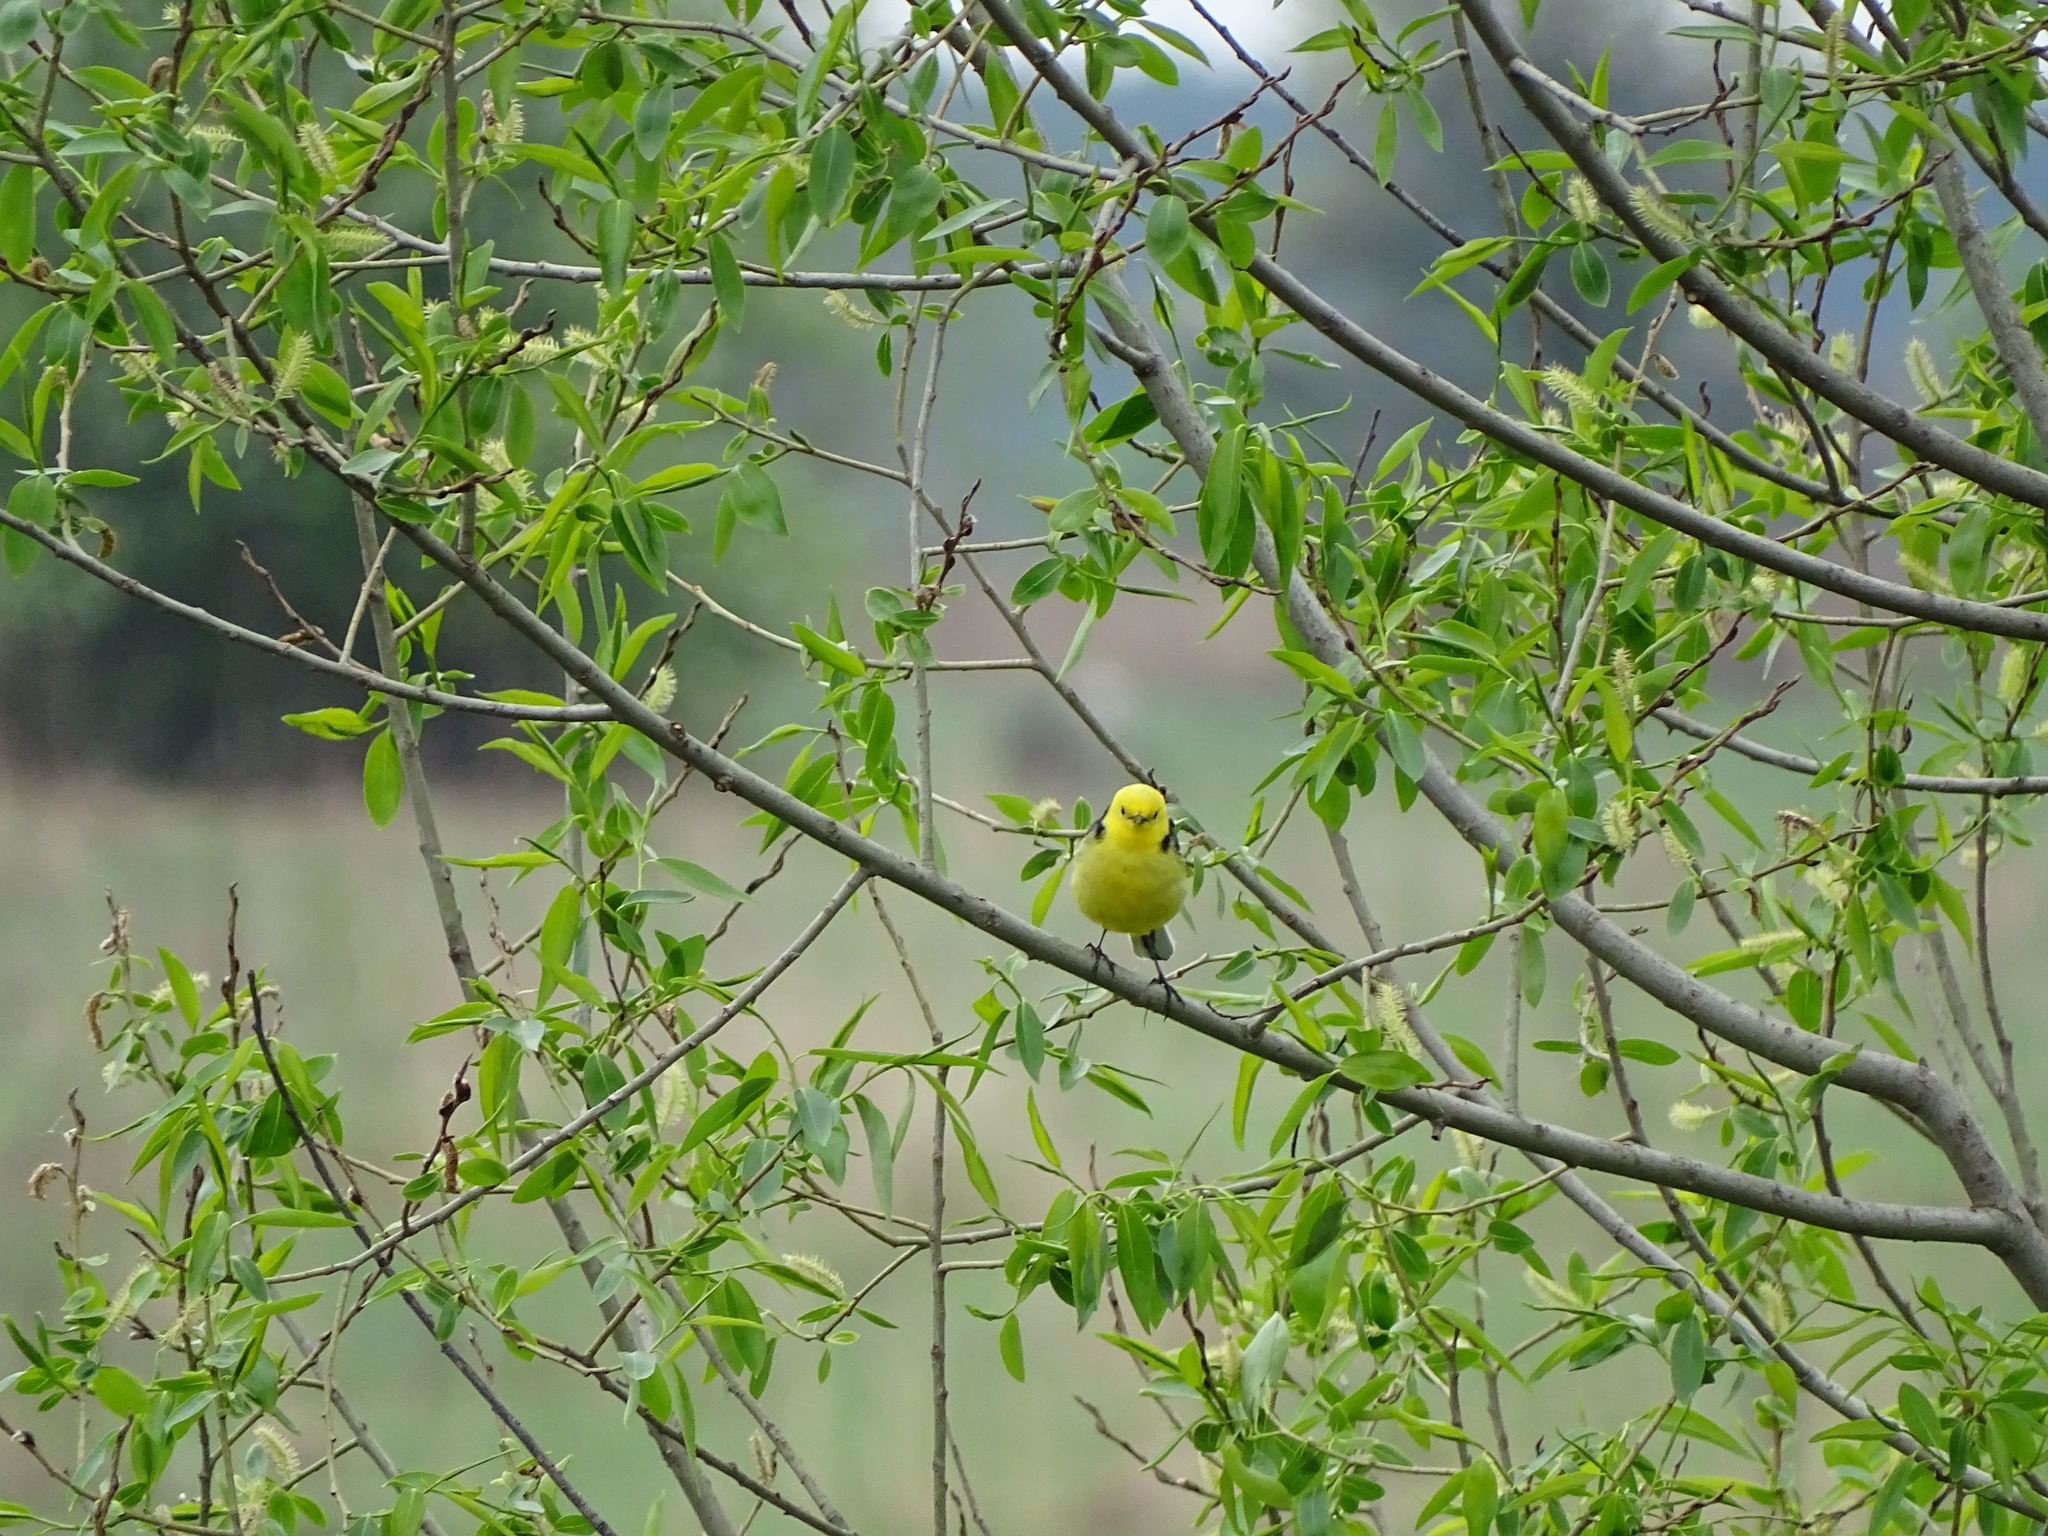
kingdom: Animalia
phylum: Chordata
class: Aves
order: Passeriformes
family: Motacillidae
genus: Motacilla
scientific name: Motacilla citreola
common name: Citrine wagtail
